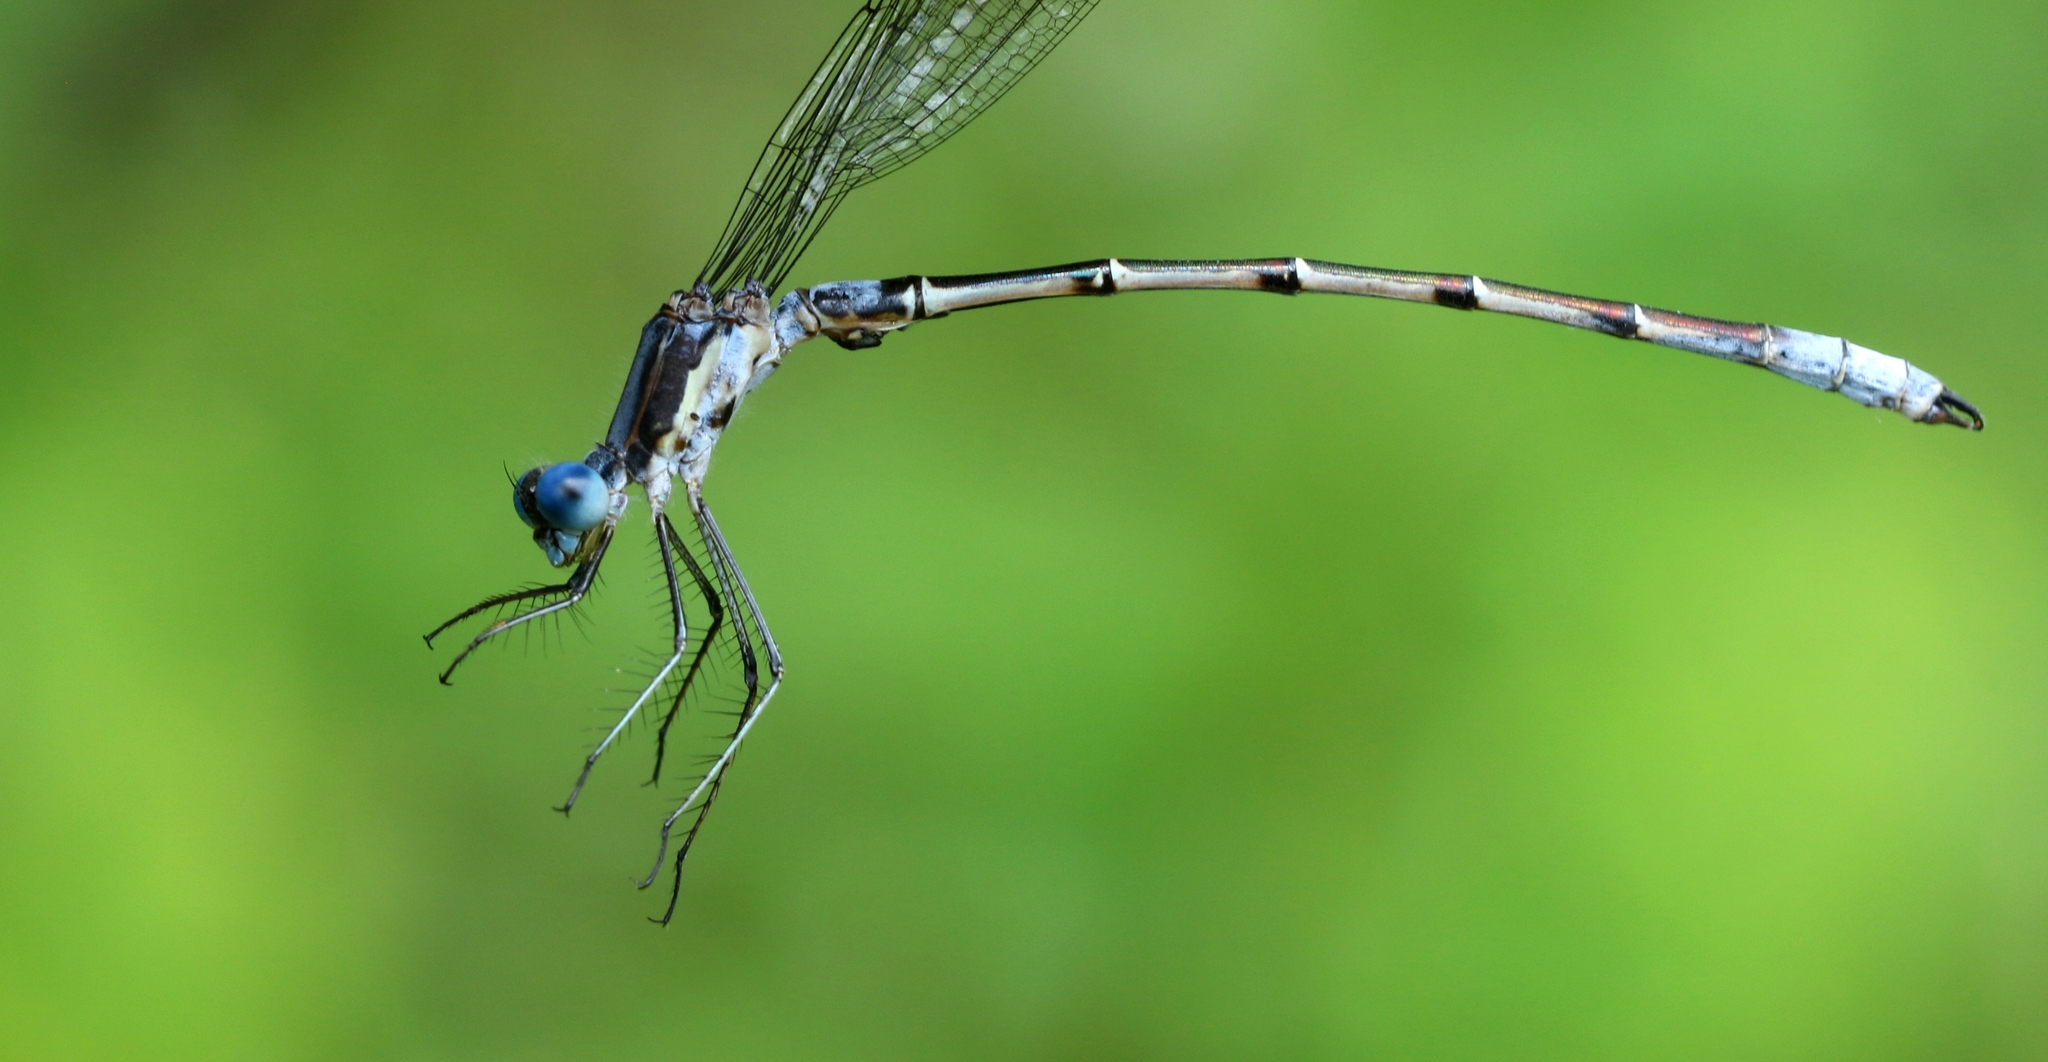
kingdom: Animalia
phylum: Arthropoda
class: Insecta
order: Odonata
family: Lestidae
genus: Lestes
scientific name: Lestes forcipatus
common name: Sweetflag spreadwing
